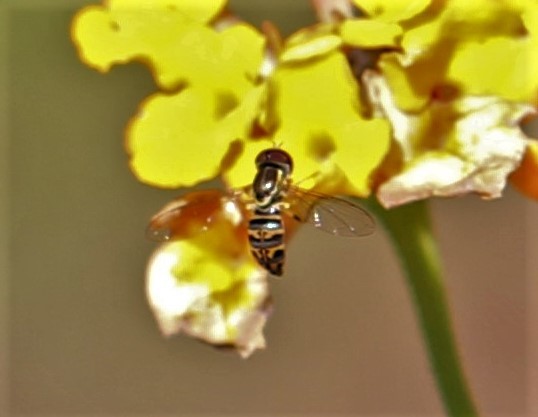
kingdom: Animalia
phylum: Arthropoda
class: Insecta
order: Diptera
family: Syrphidae
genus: Toxomerus
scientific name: Toxomerus parvulus
